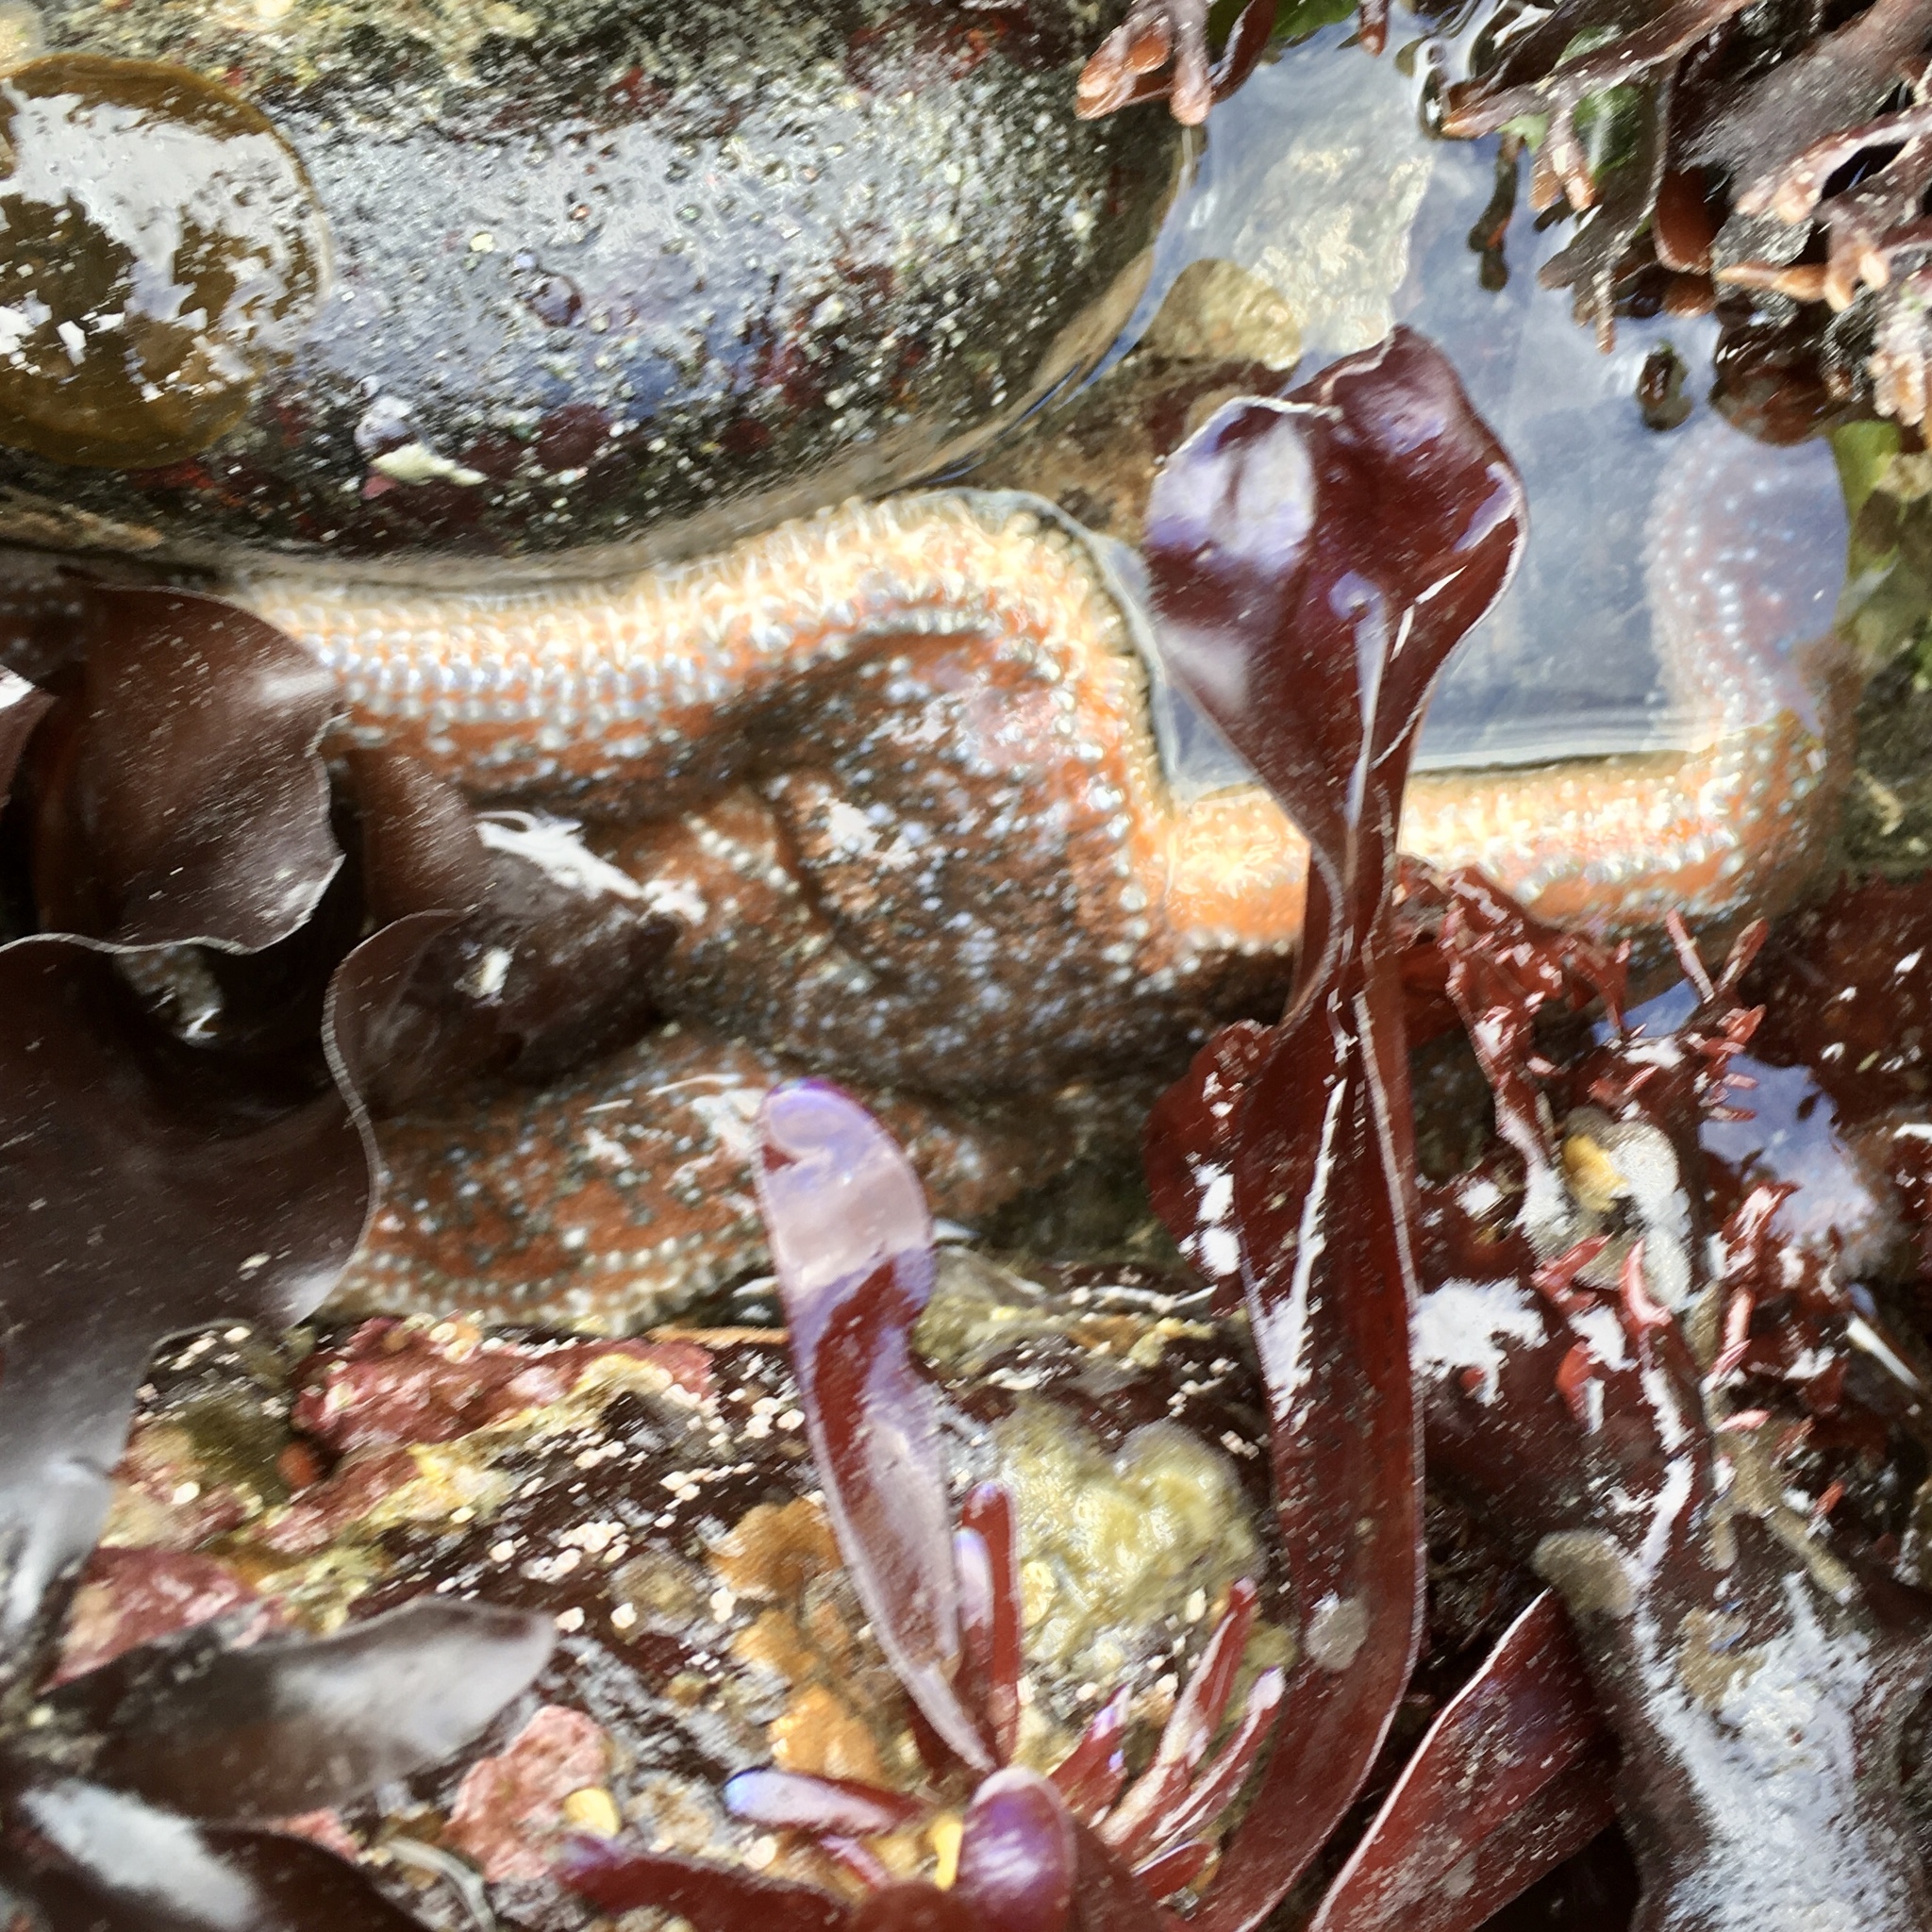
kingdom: Animalia
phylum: Echinodermata
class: Asteroidea
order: Forcipulatida
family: Asteriidae
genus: Evasterias
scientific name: Evasterias troschelii
